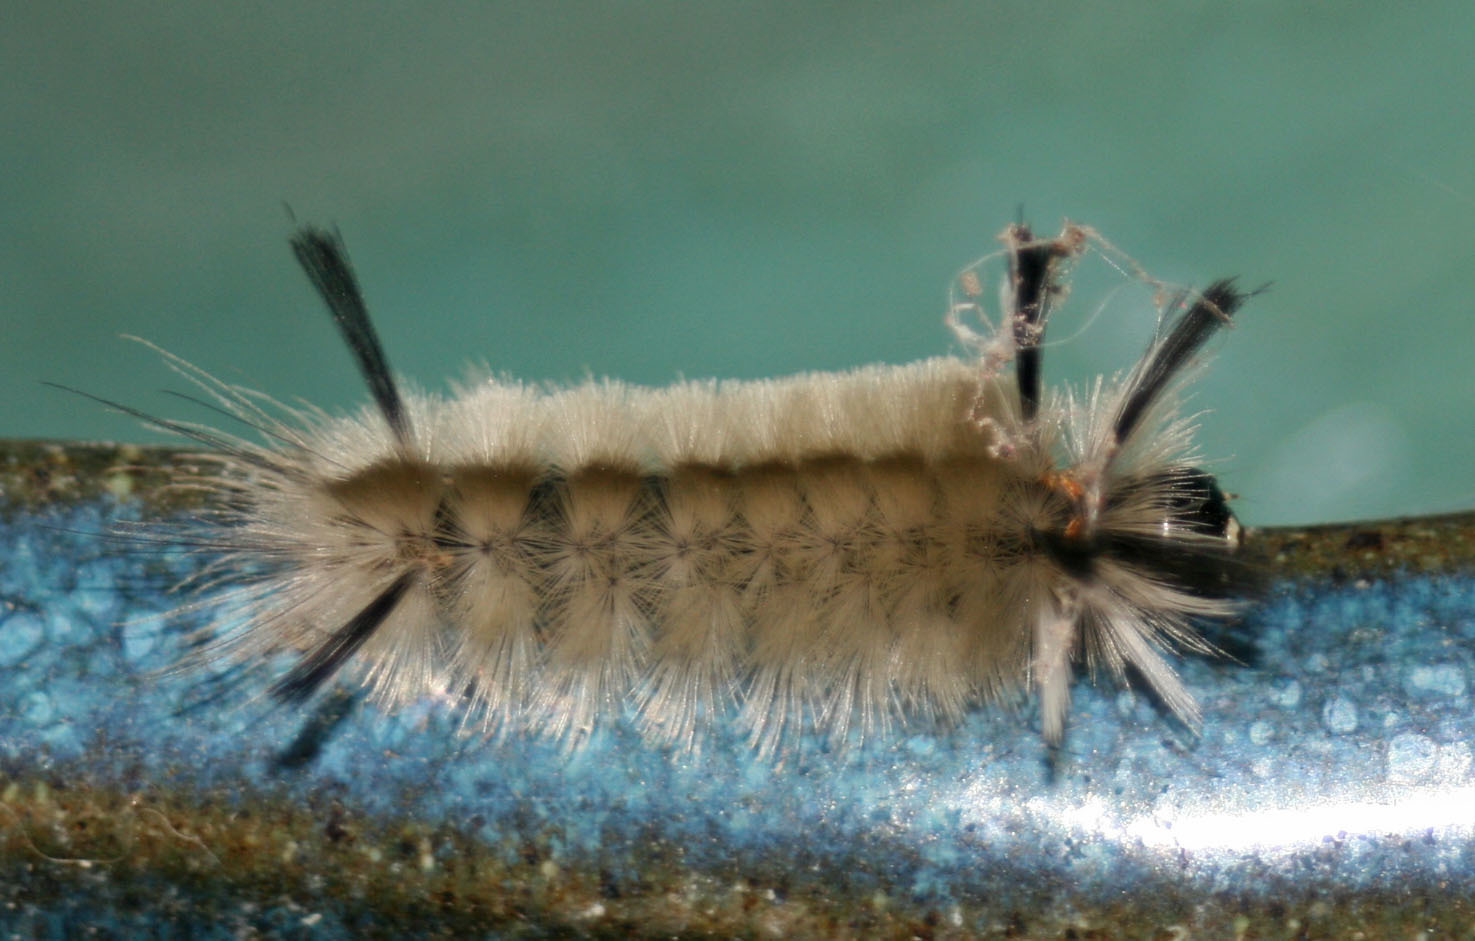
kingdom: Animalia
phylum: Arthropoda
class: Insecta
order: Lepidoptera
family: Erebidae
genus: Halysidota
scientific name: Halysidota tessellaris
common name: Banded tussock moth
